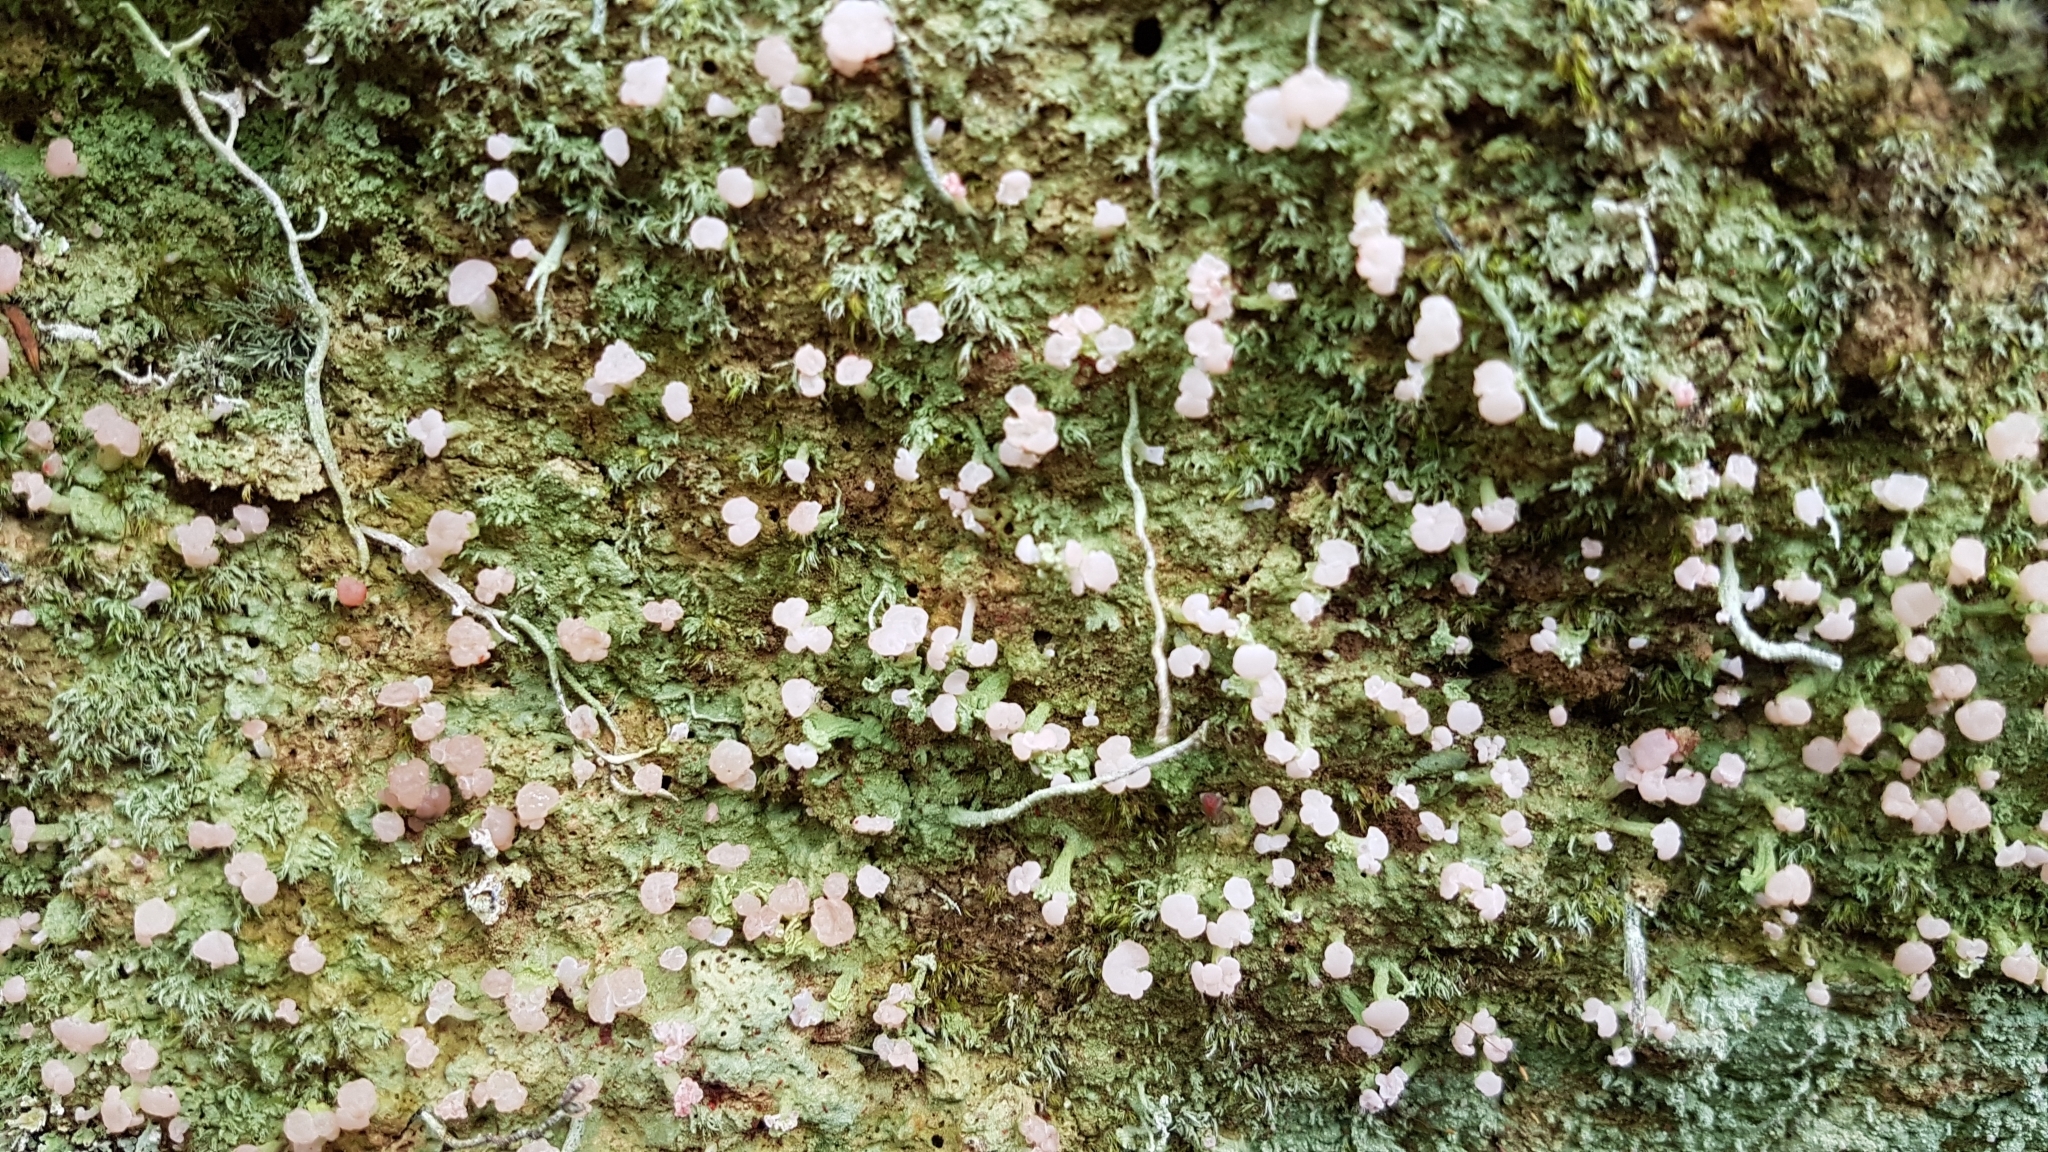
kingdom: Fungi
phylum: Ascomycota
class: Lecanoromycetes
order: Baeomycetales
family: Baeomycetaceae
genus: Baeomyces
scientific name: Baeomyces heteromorphus
